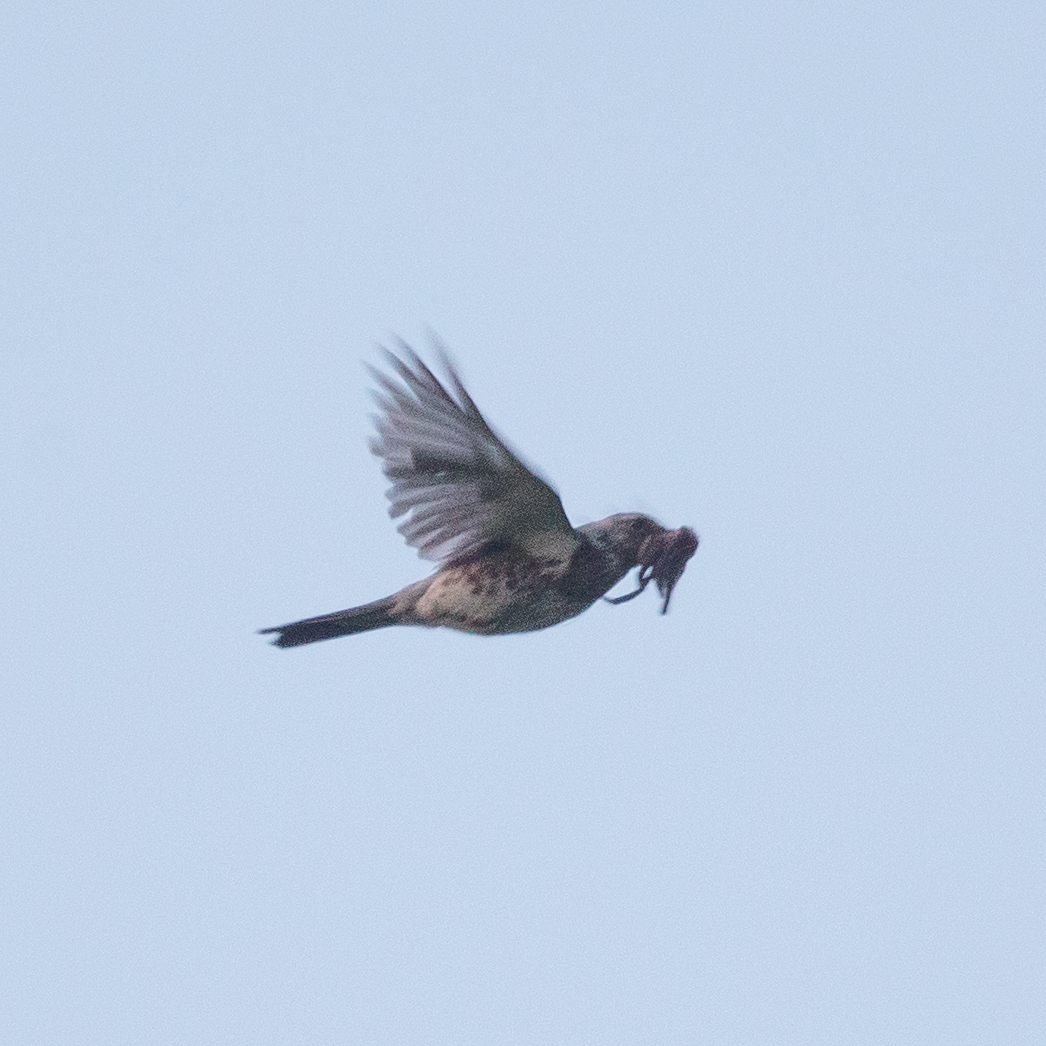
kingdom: Animalia
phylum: Chordata
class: Aves
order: Passeriformes
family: Turdidae
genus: Turdus
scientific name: Turdus pilaris
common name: Fieldfare
